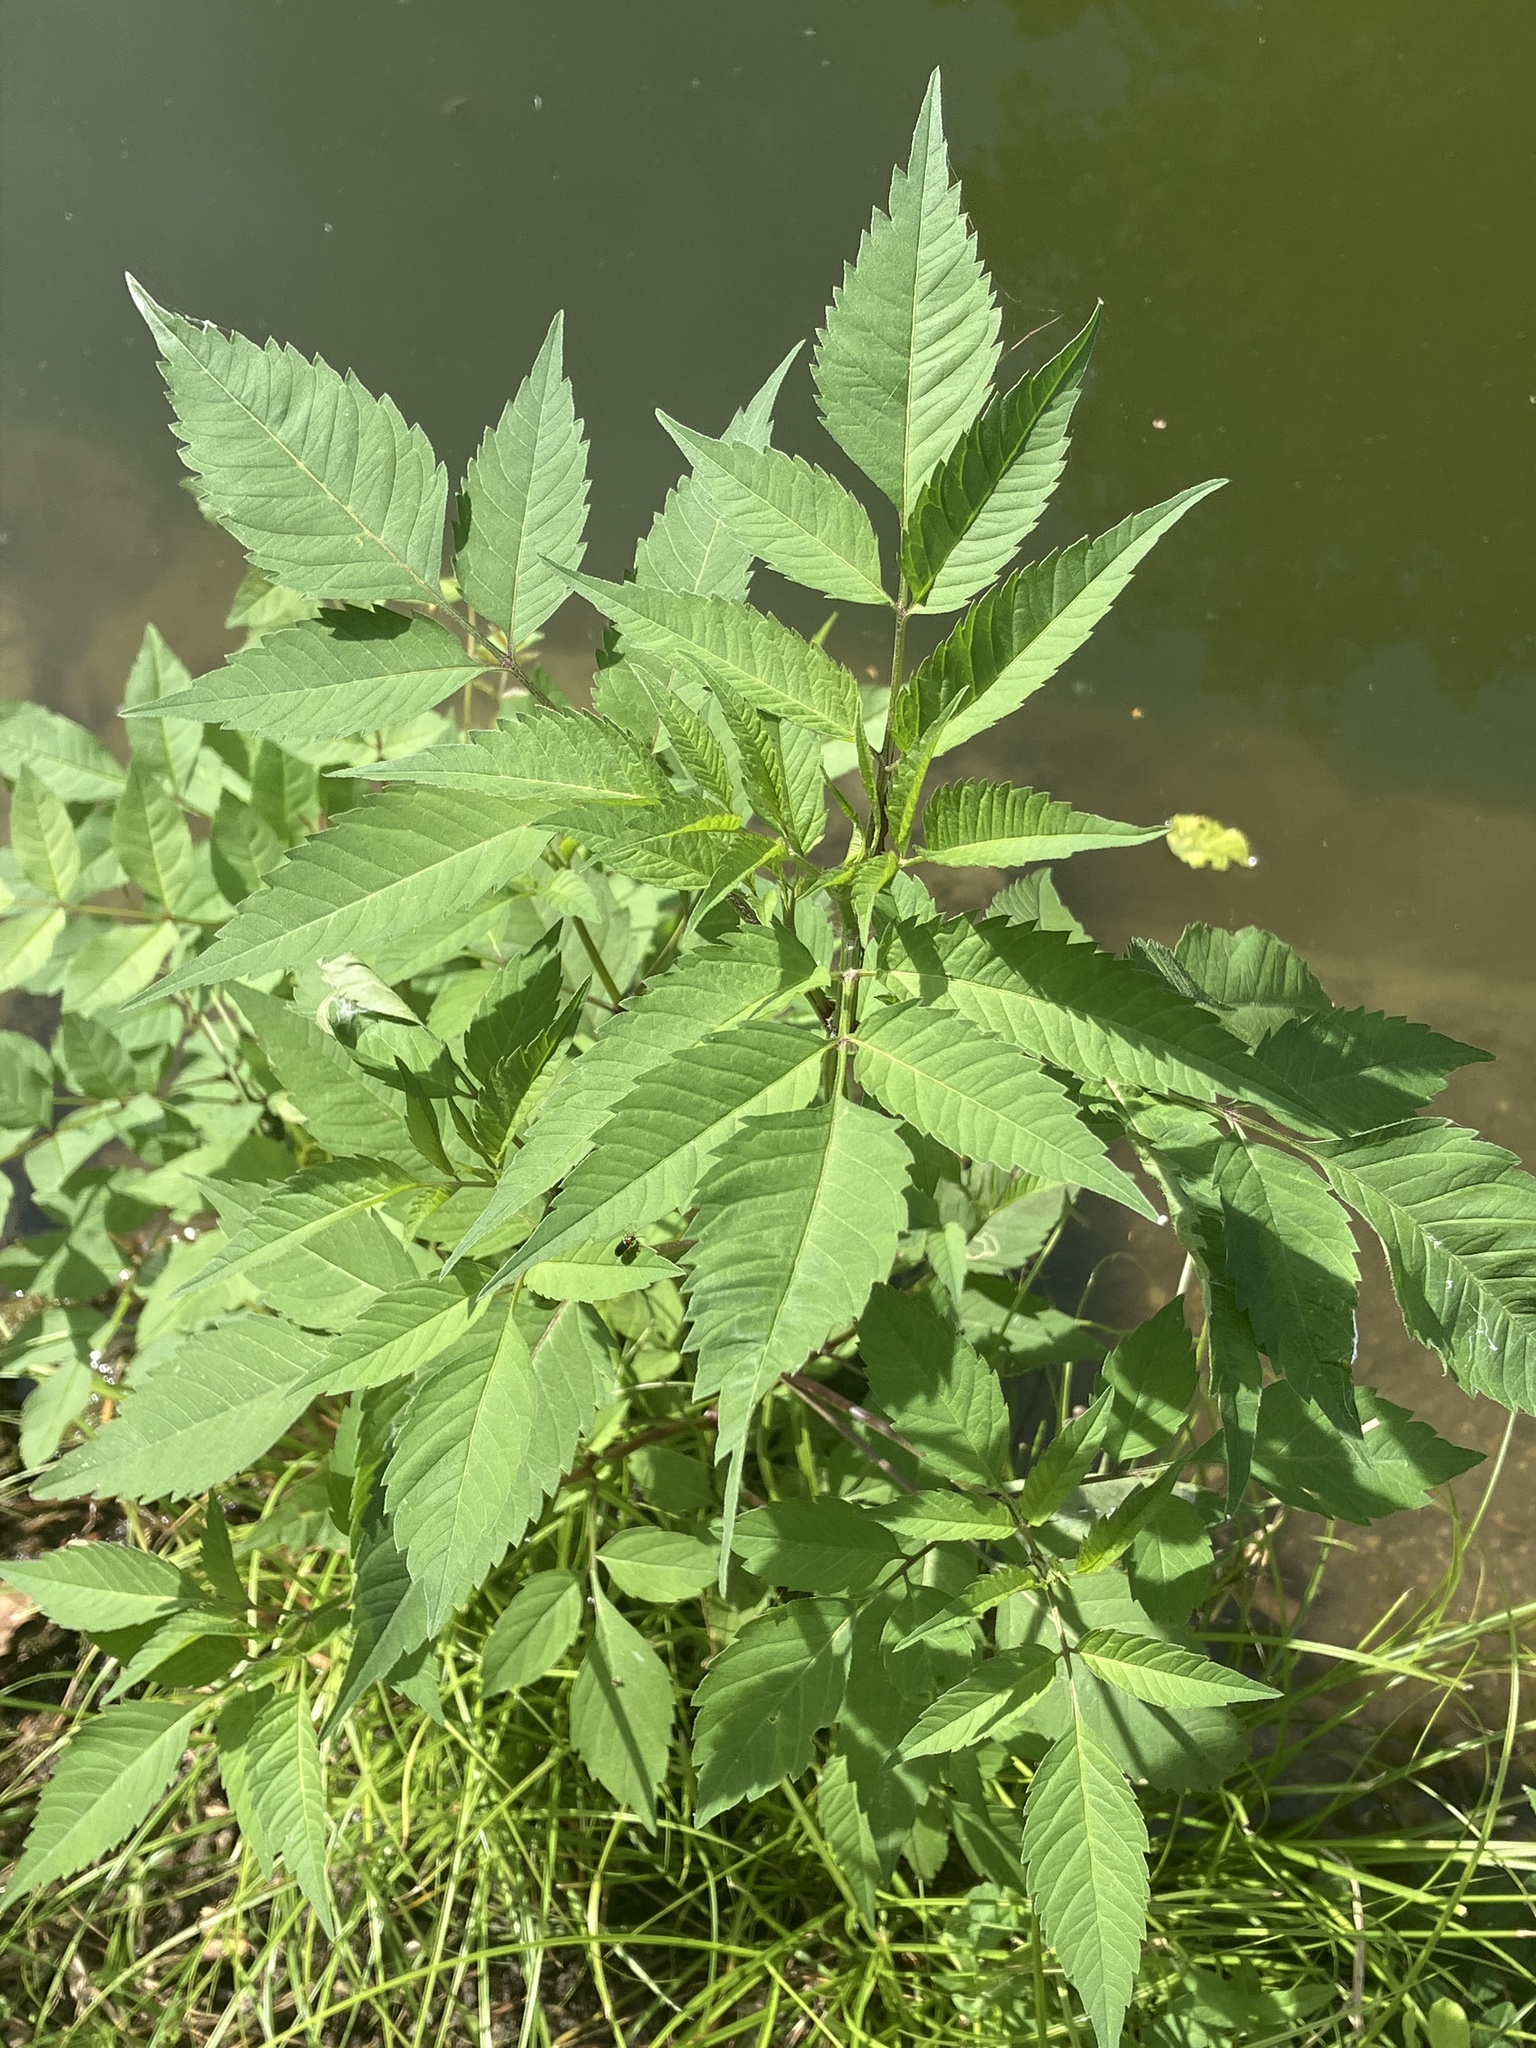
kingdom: Plantae
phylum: Tracheophyta
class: Magnoliopsida
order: Asterales
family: Asteraceae
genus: Bidens
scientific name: Bidens frondosa
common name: Beggarticks
